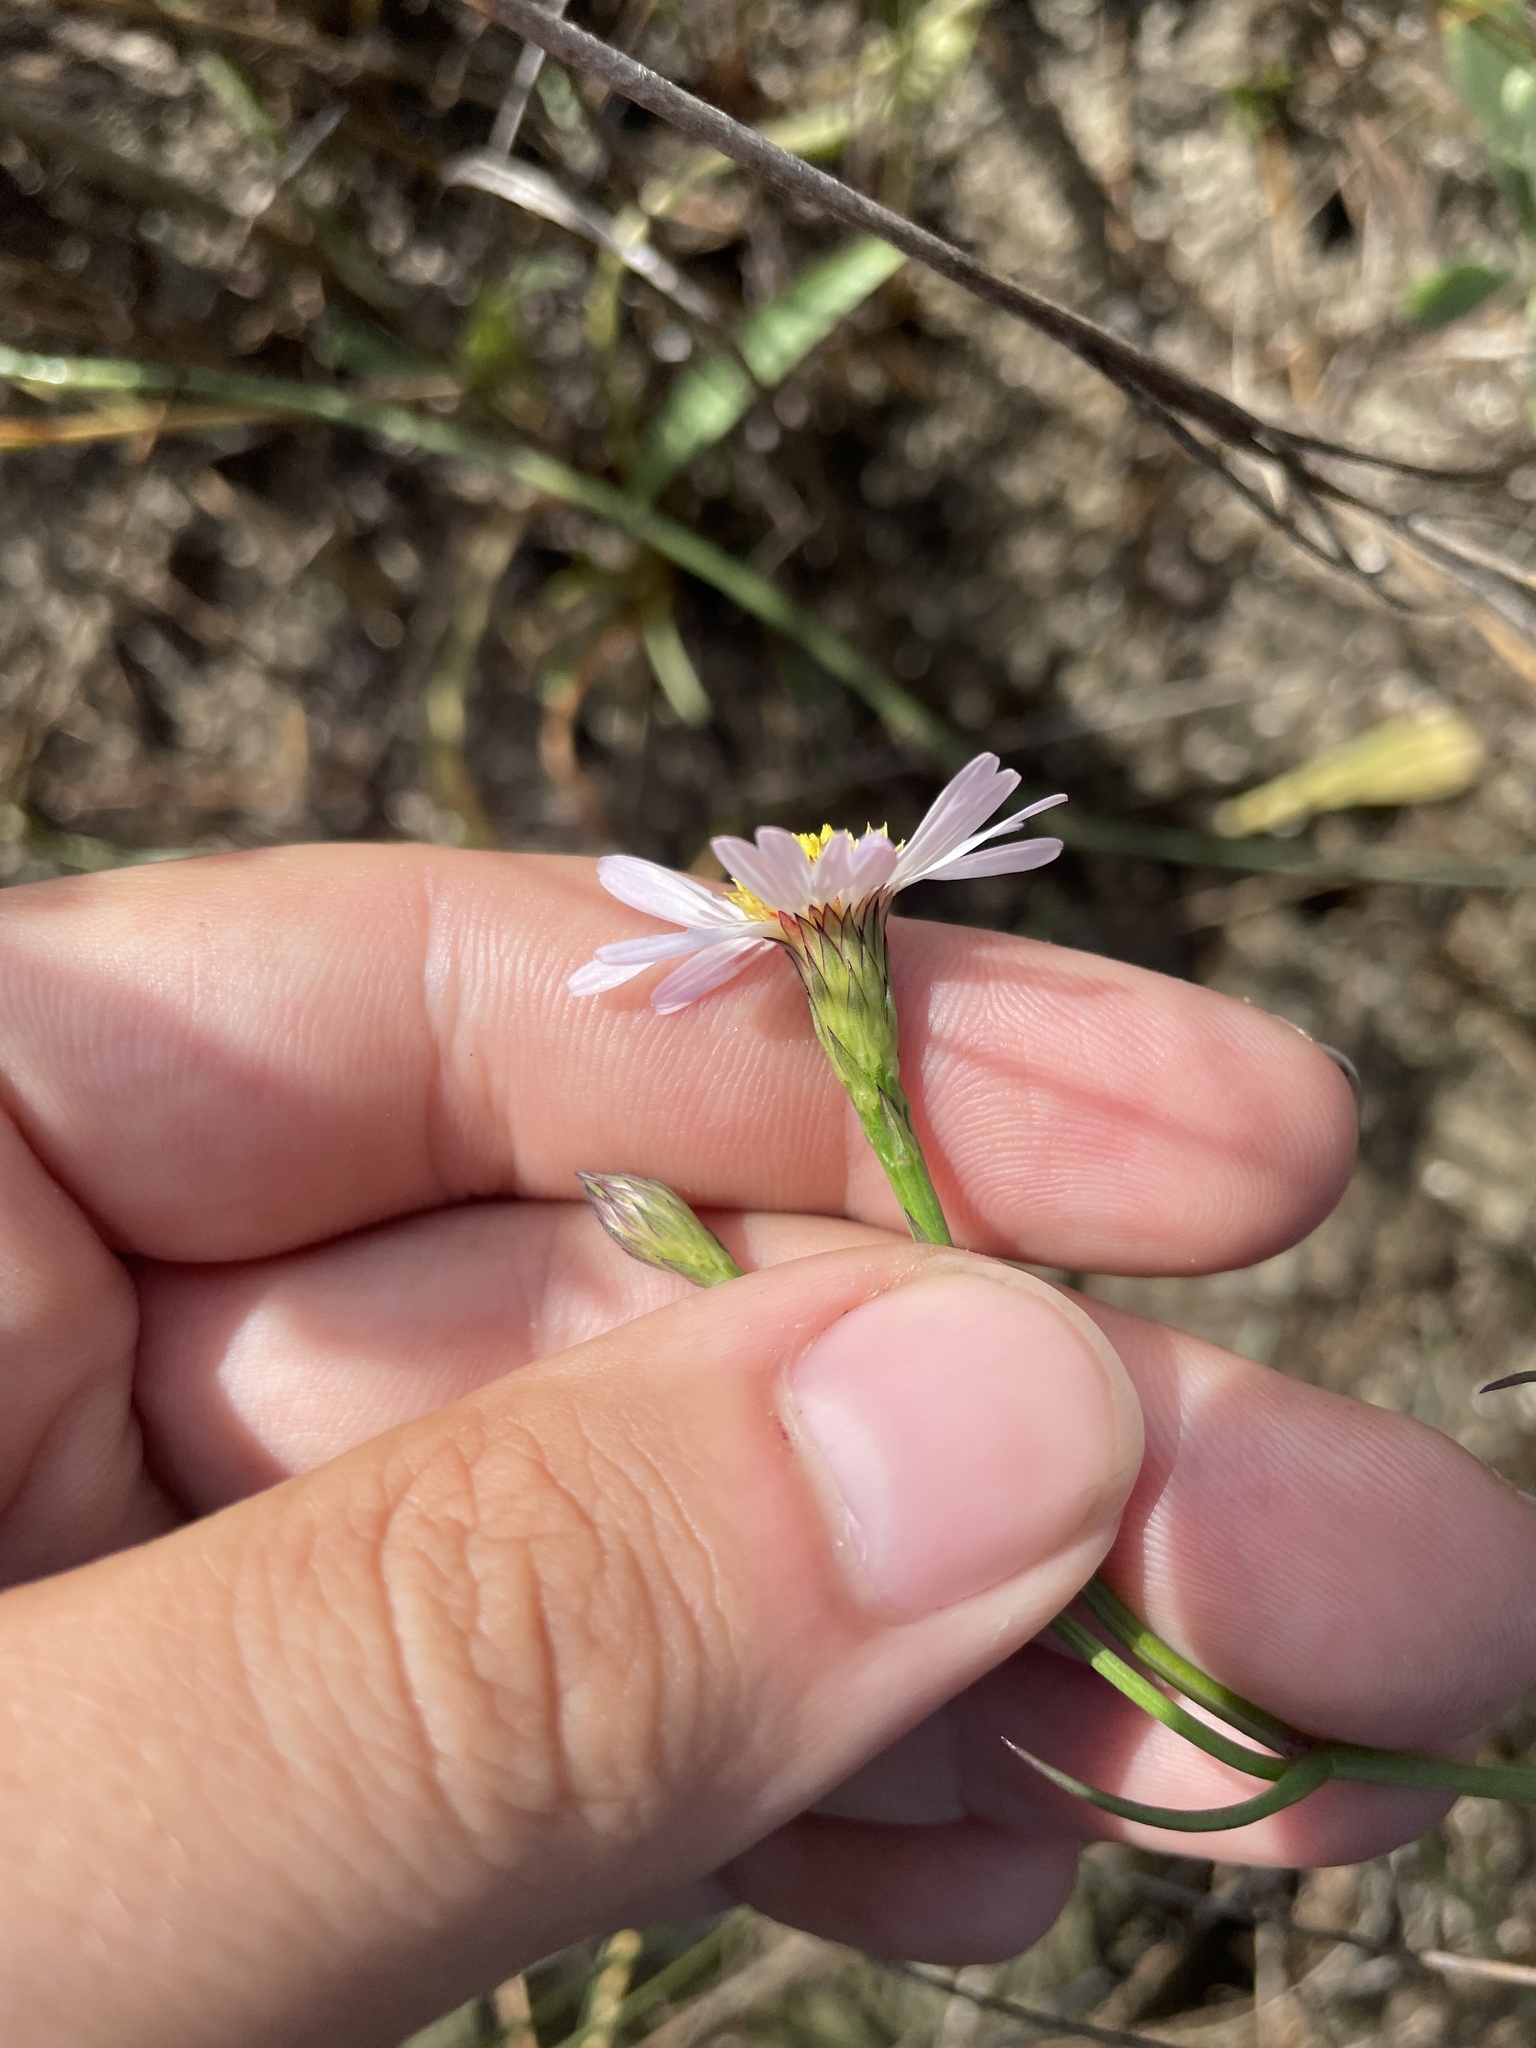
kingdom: Plantae
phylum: Tracheophyta
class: Magnoliopsida
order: Asterales
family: Asteraceae
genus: Symphyotrichum
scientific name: Symphyotrichum tenuifolium
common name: Perennial salt-marsh aster
